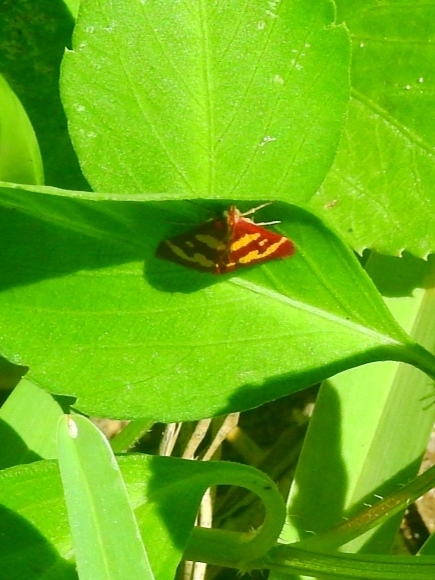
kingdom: Animalia
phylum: Arthropoda
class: Insecta
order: Lepidoptera
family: Crambidae
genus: Pyrausta
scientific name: Pyrausta tyralis
